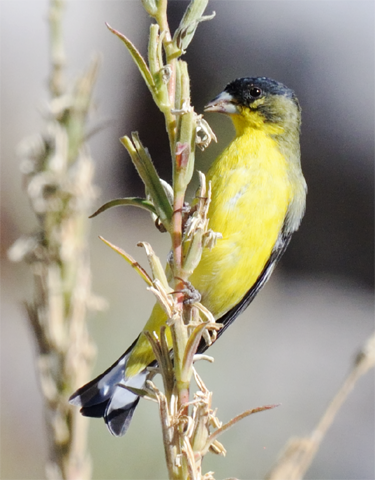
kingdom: Animalia
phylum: Chordata
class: Aves
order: Passeriformes
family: Fringillidae
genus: Spinus
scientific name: Spinus psaltria
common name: Lesser goldfinch
